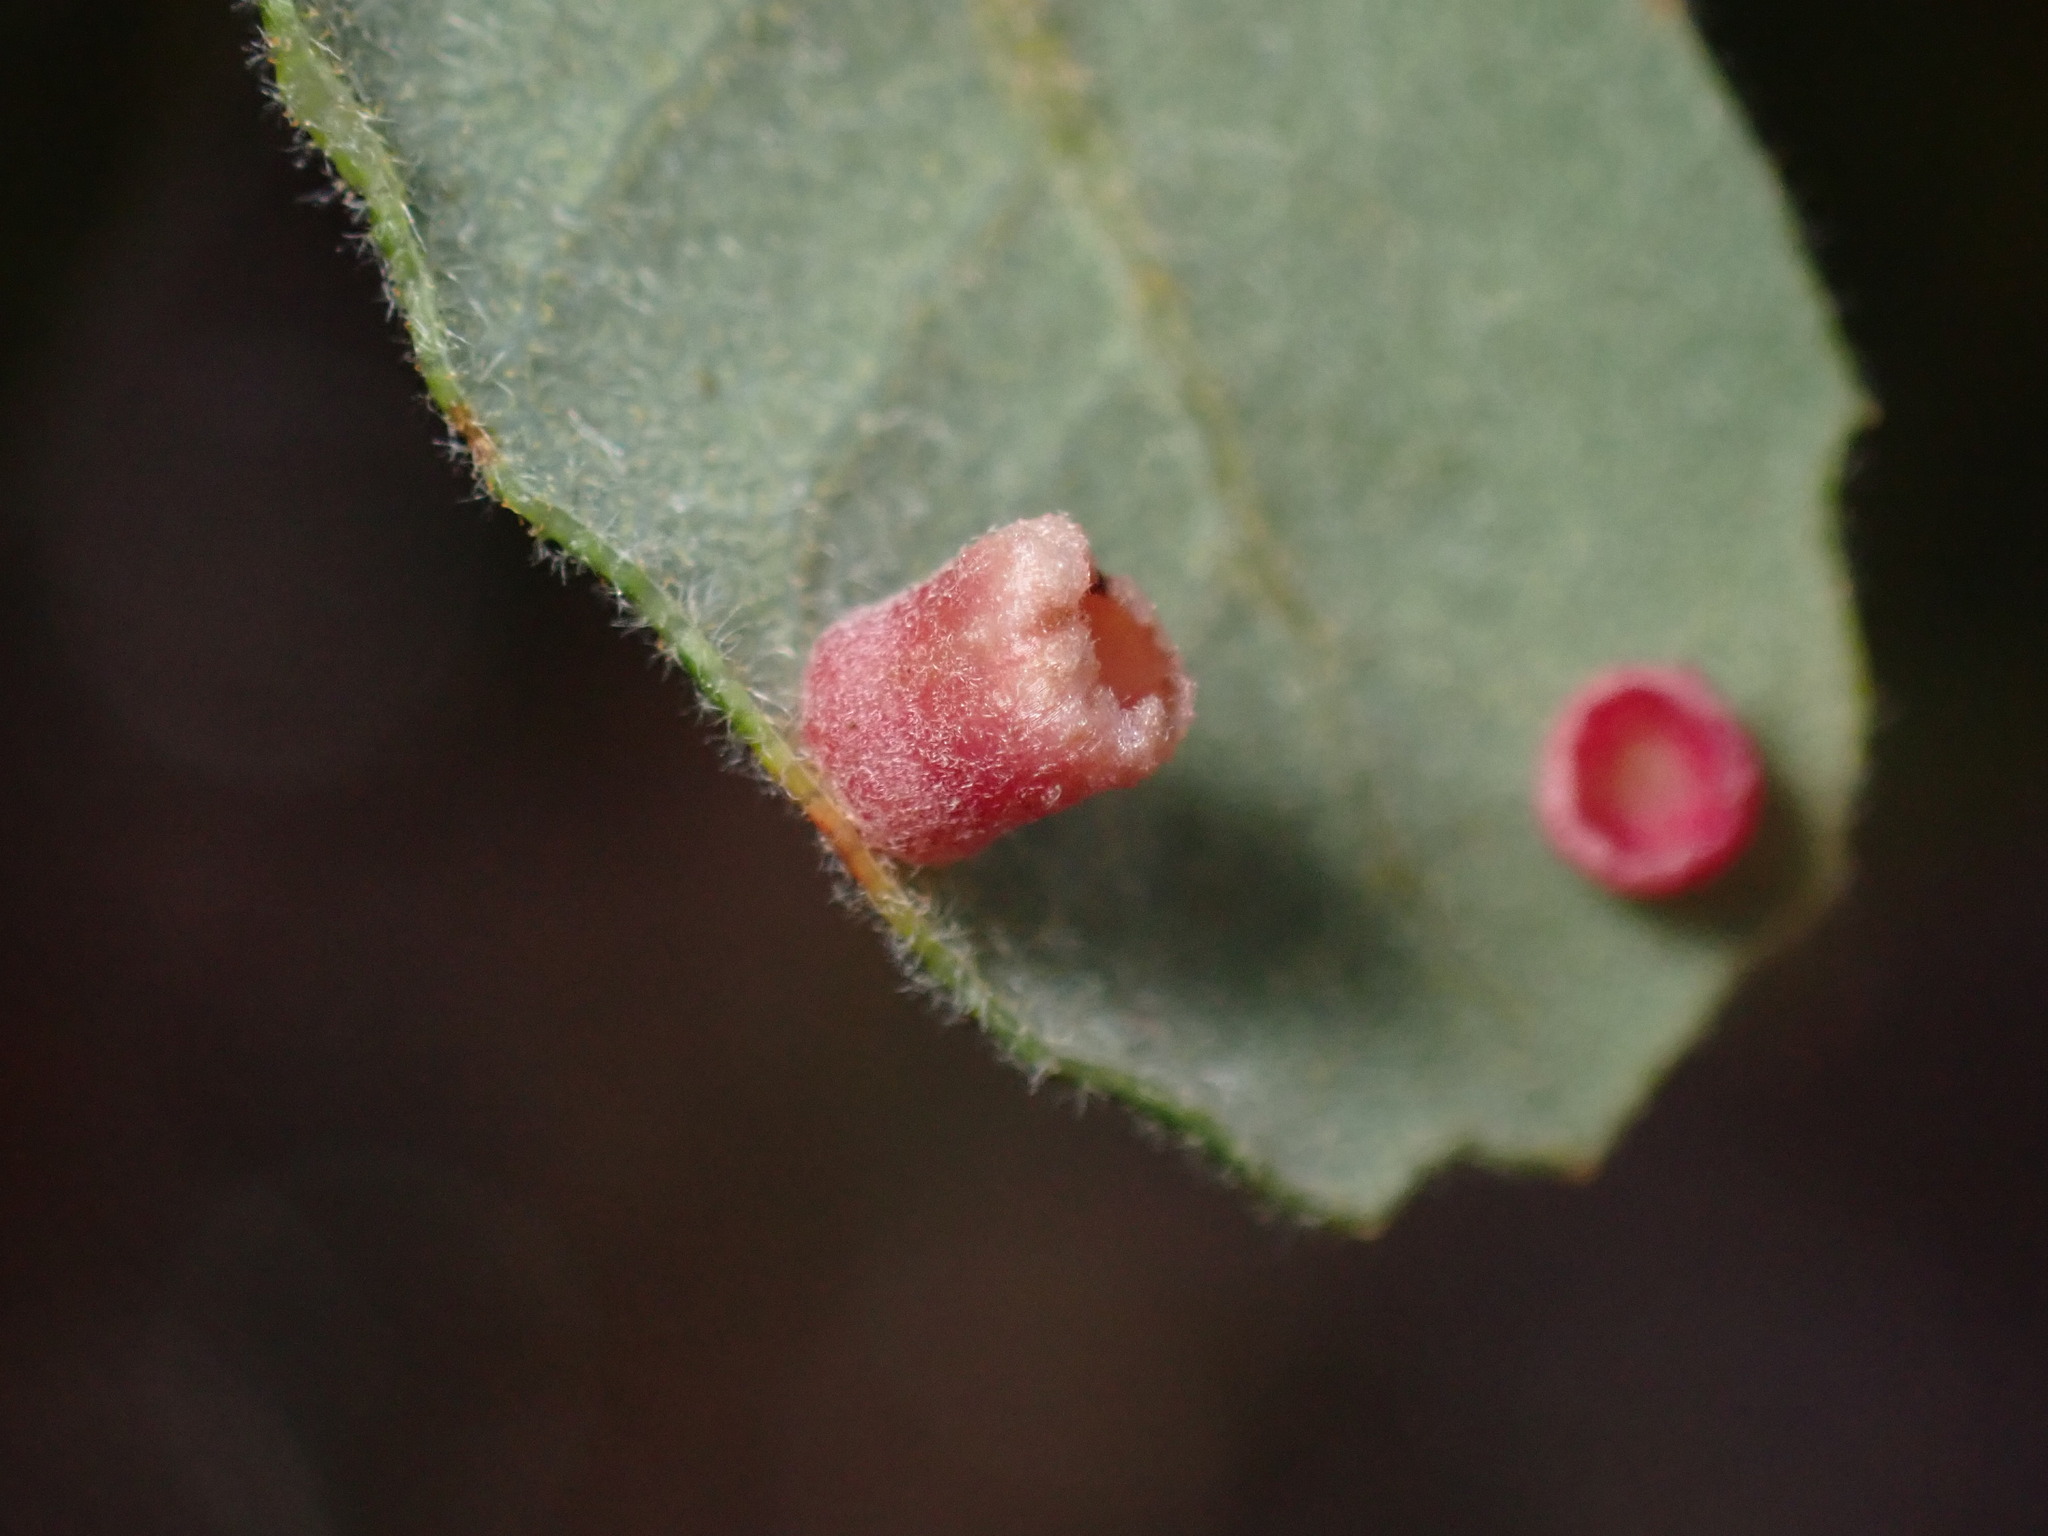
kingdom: Animalia
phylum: Arthropoda
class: Insecta
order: Hymenoptera
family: Cynipidae
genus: Phylloteras
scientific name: Phylloteras
